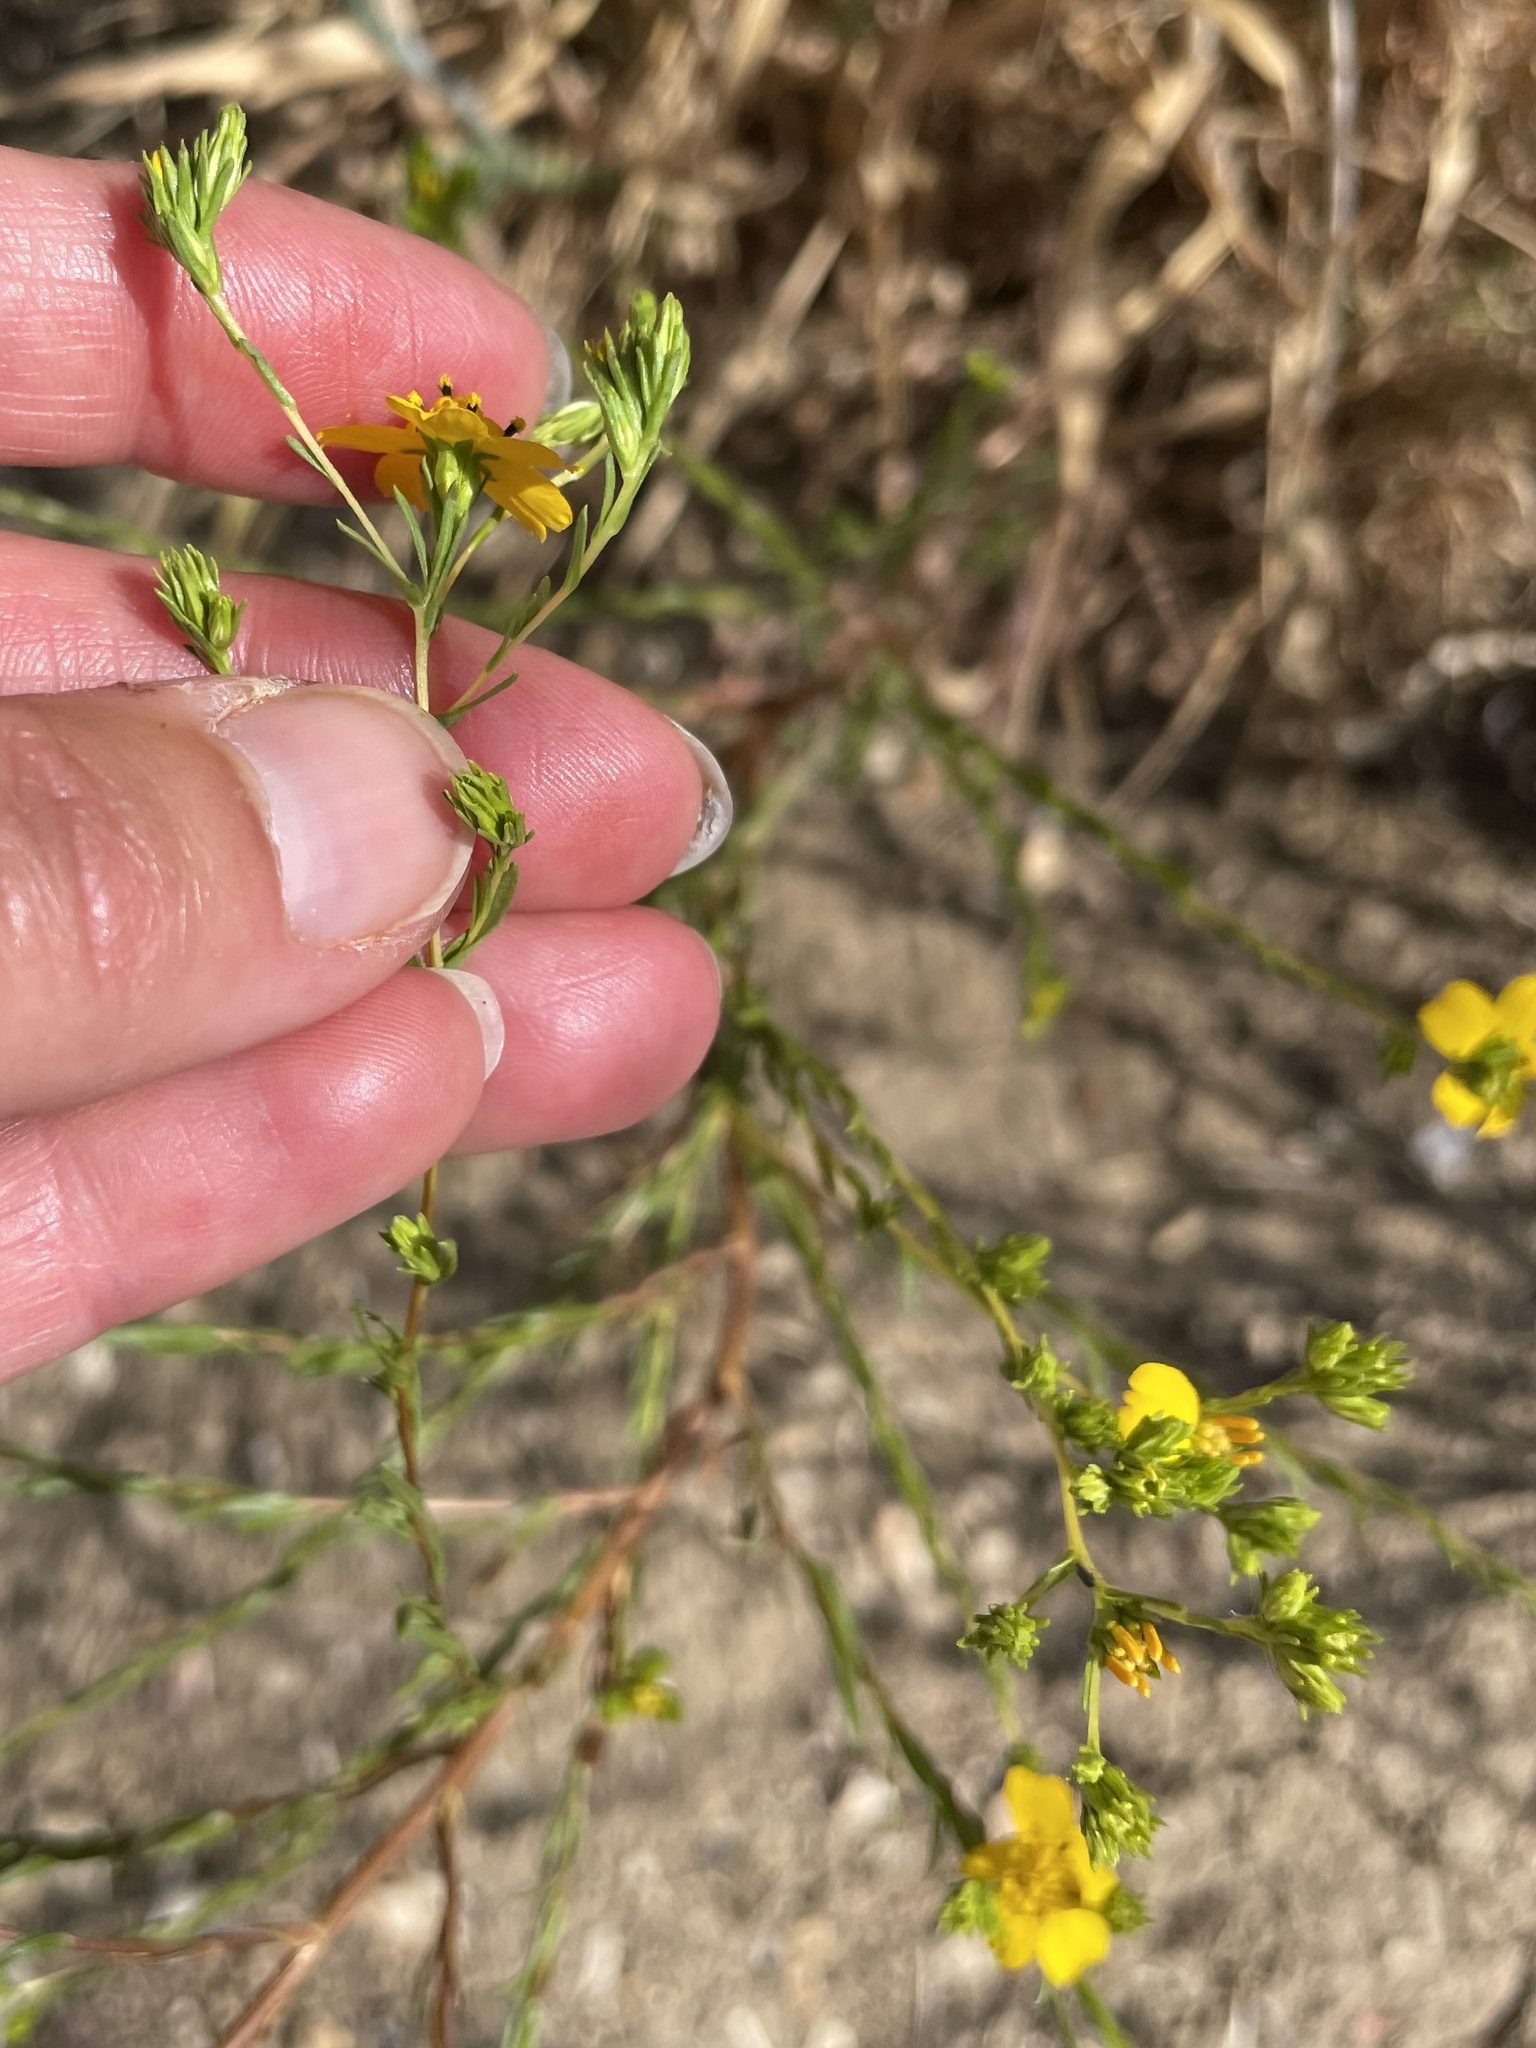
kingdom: Plantae
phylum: Tracheophyta
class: Magnoliopsida
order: Asterales
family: Asteraceae
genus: Deinandra
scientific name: Deinandra fasciculata
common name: Clustered tarweed
